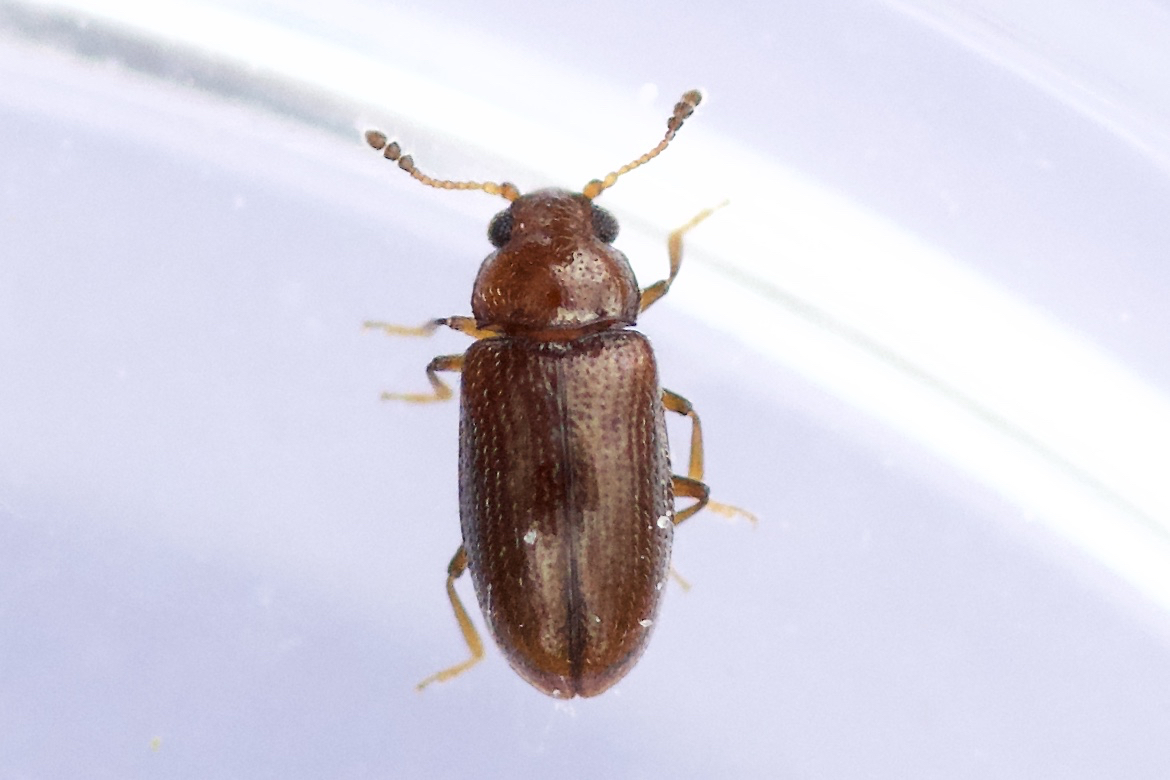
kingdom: Animalia
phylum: Arthropoda
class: Insecta
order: Coleoptera
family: Erotylidae
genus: Loberus
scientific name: Loberus impressus
